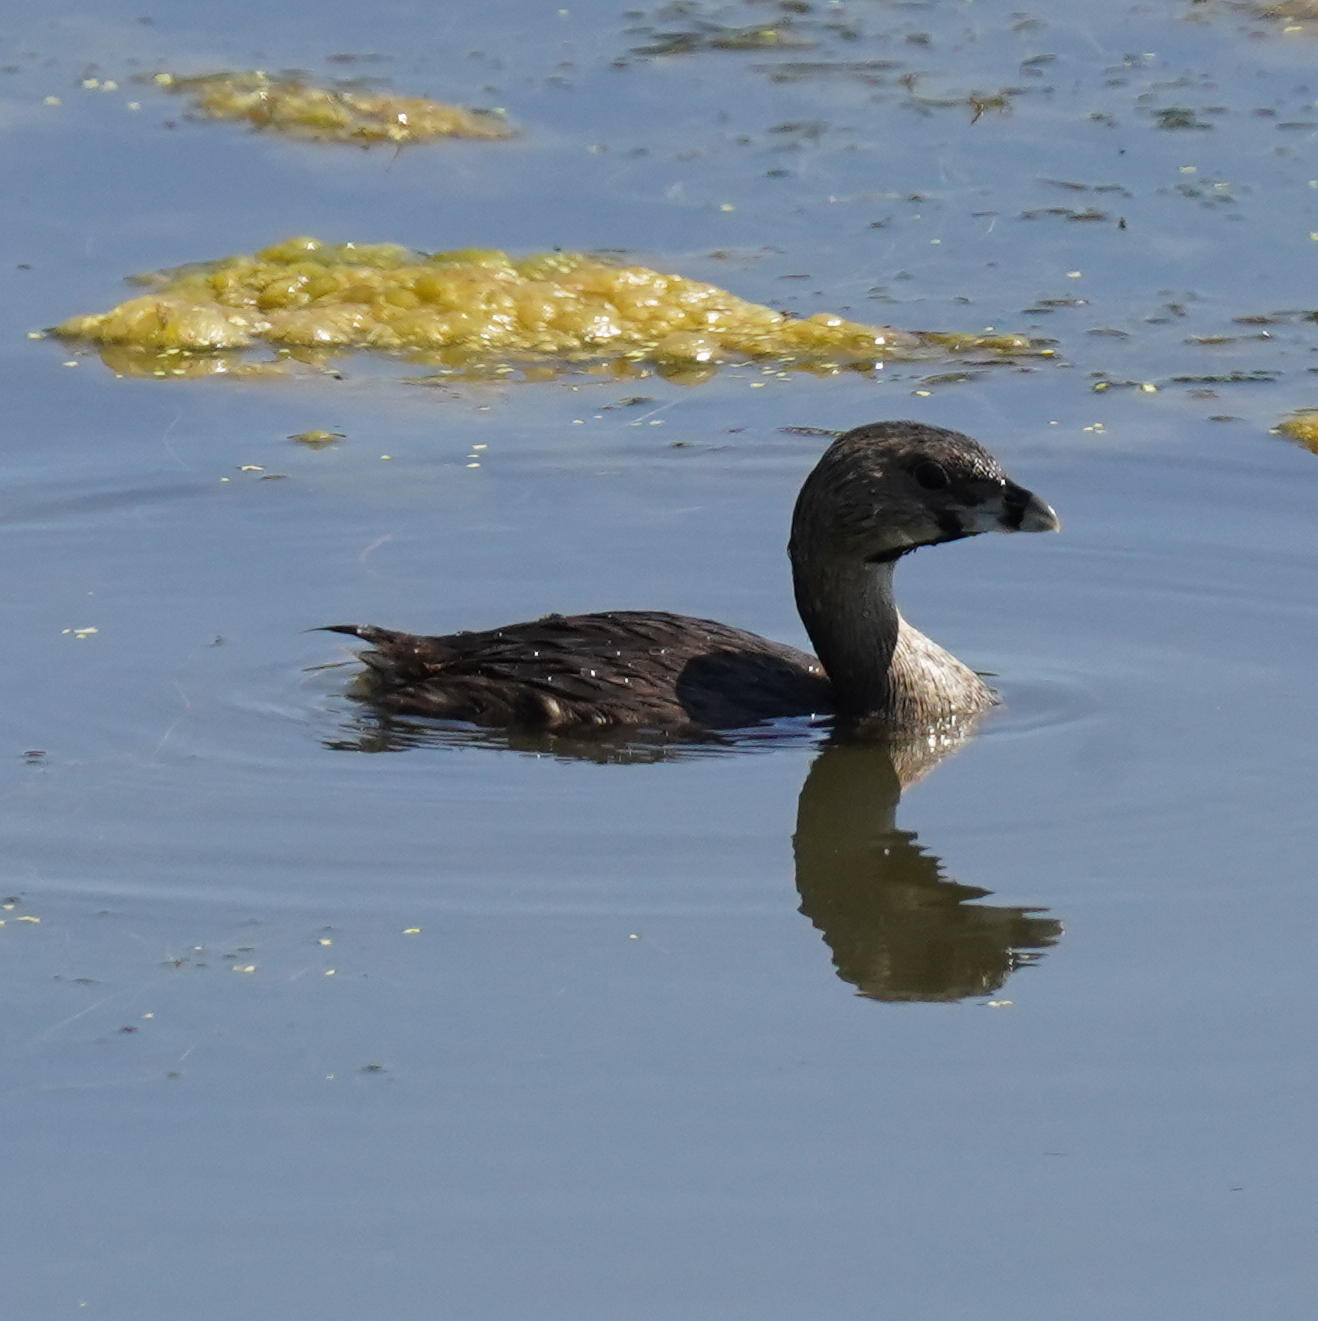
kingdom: Animalia
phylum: Chordata
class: Aves
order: Podicipediformes
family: Podicipedidae
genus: Podilymbus
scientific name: Podilymbus podiceps
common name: Pied-billed grebe
